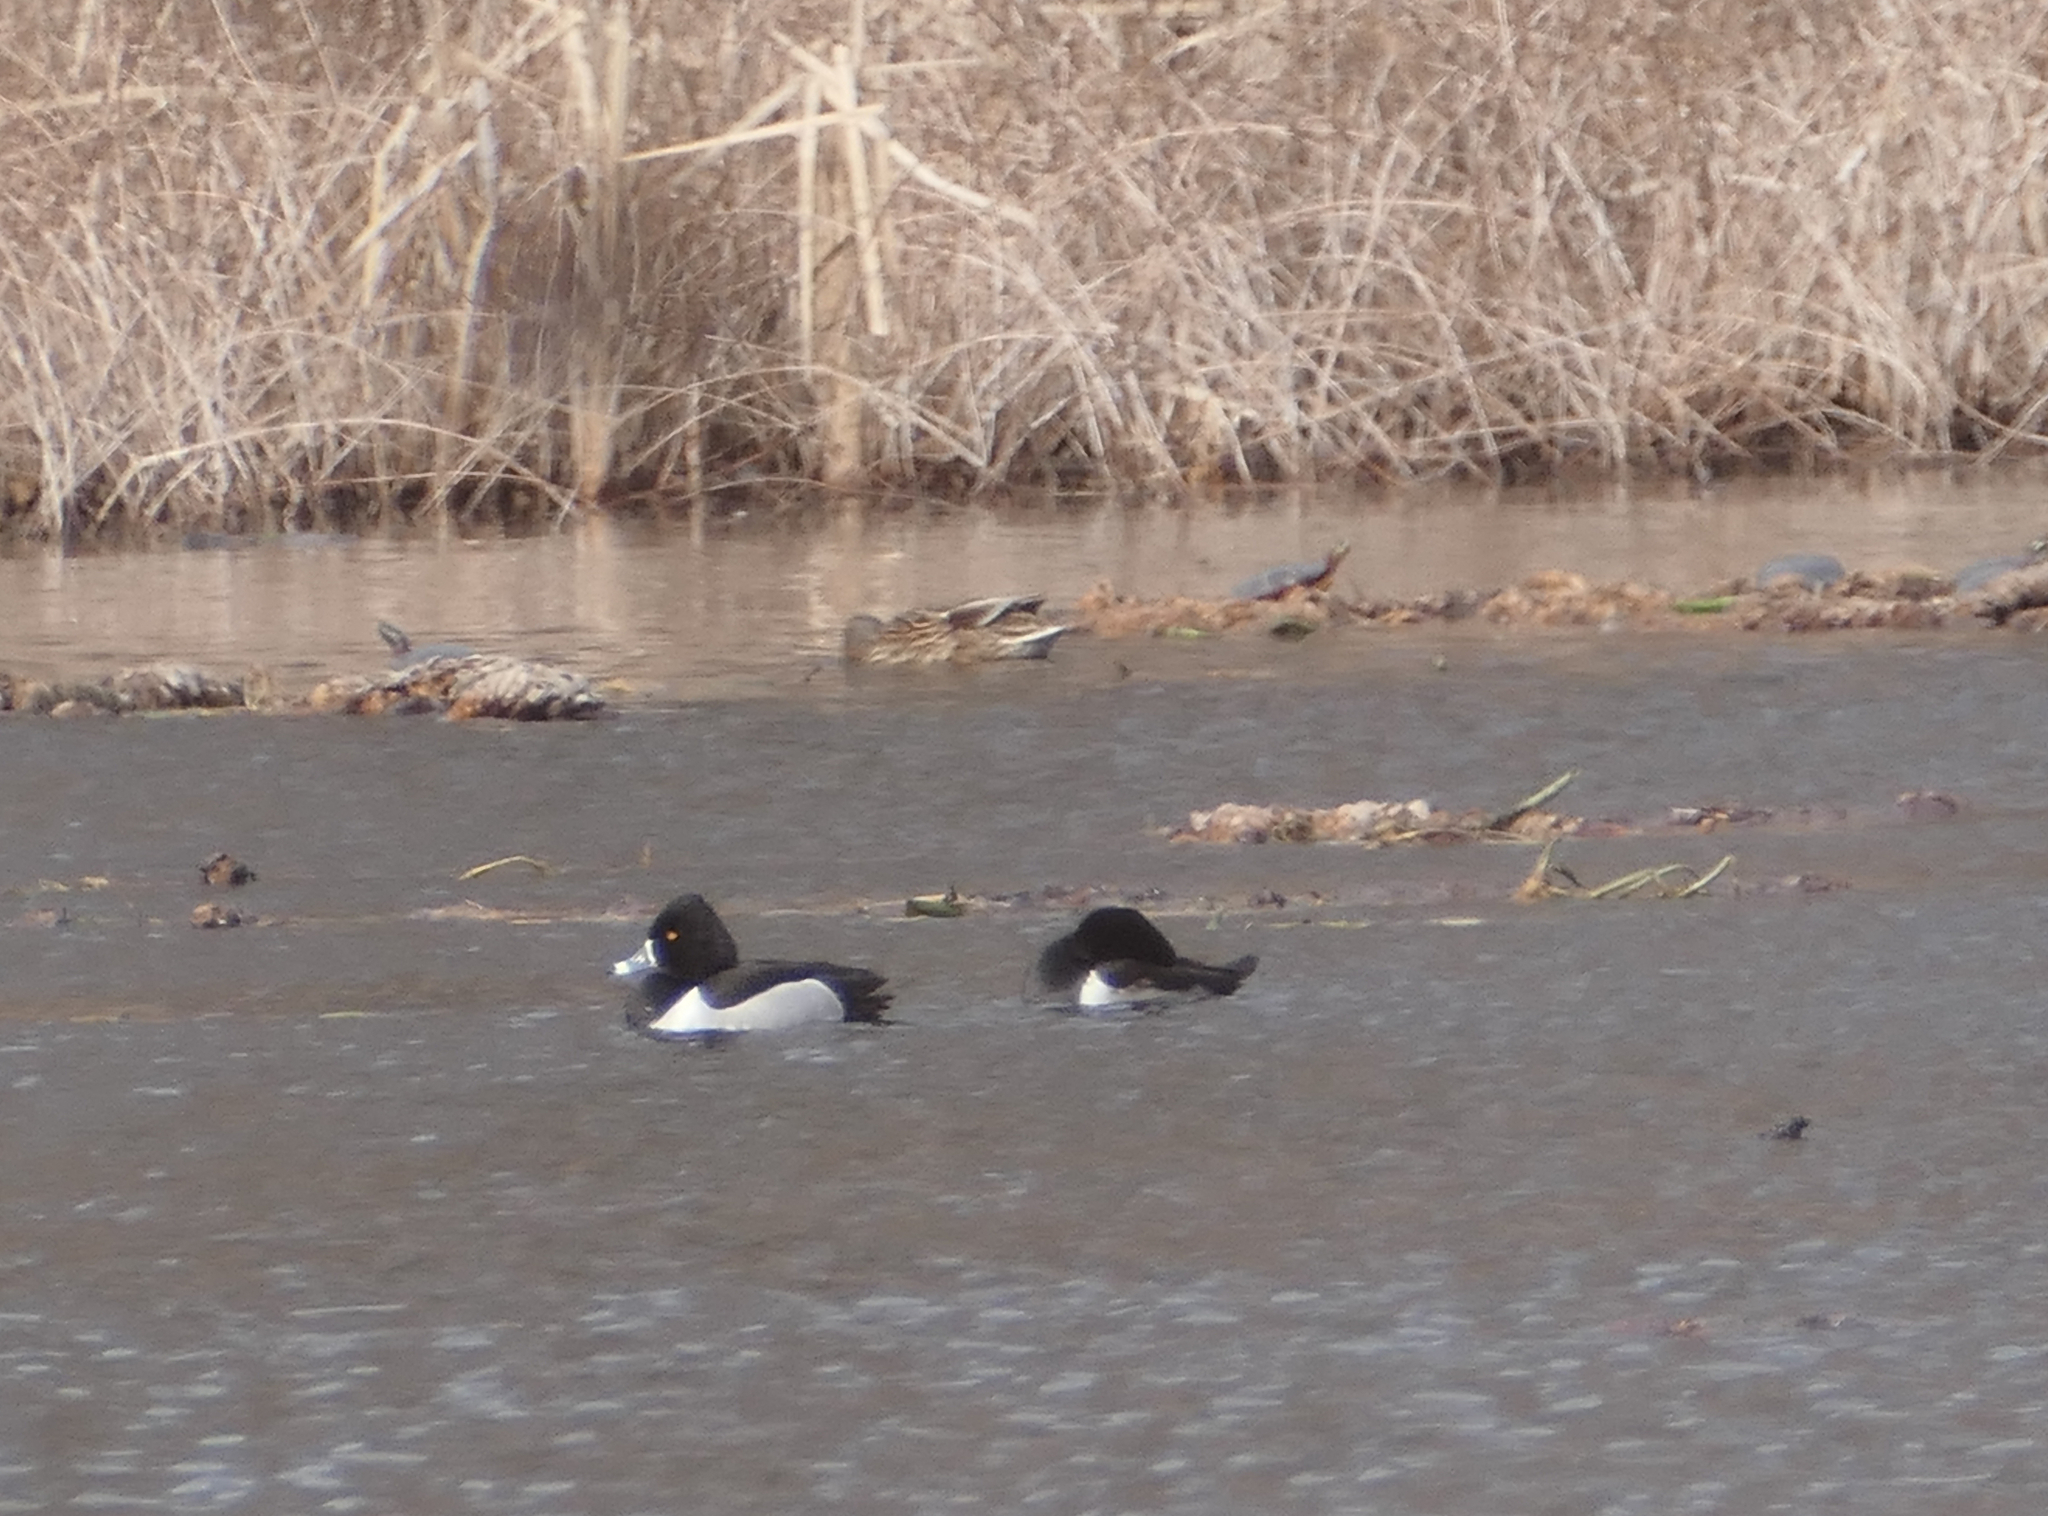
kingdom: Animalia
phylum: Chordata
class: Aves
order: Anseriformes
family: Anatidae
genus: Aythya
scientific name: Aythya collaris
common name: Ring-necked duck
